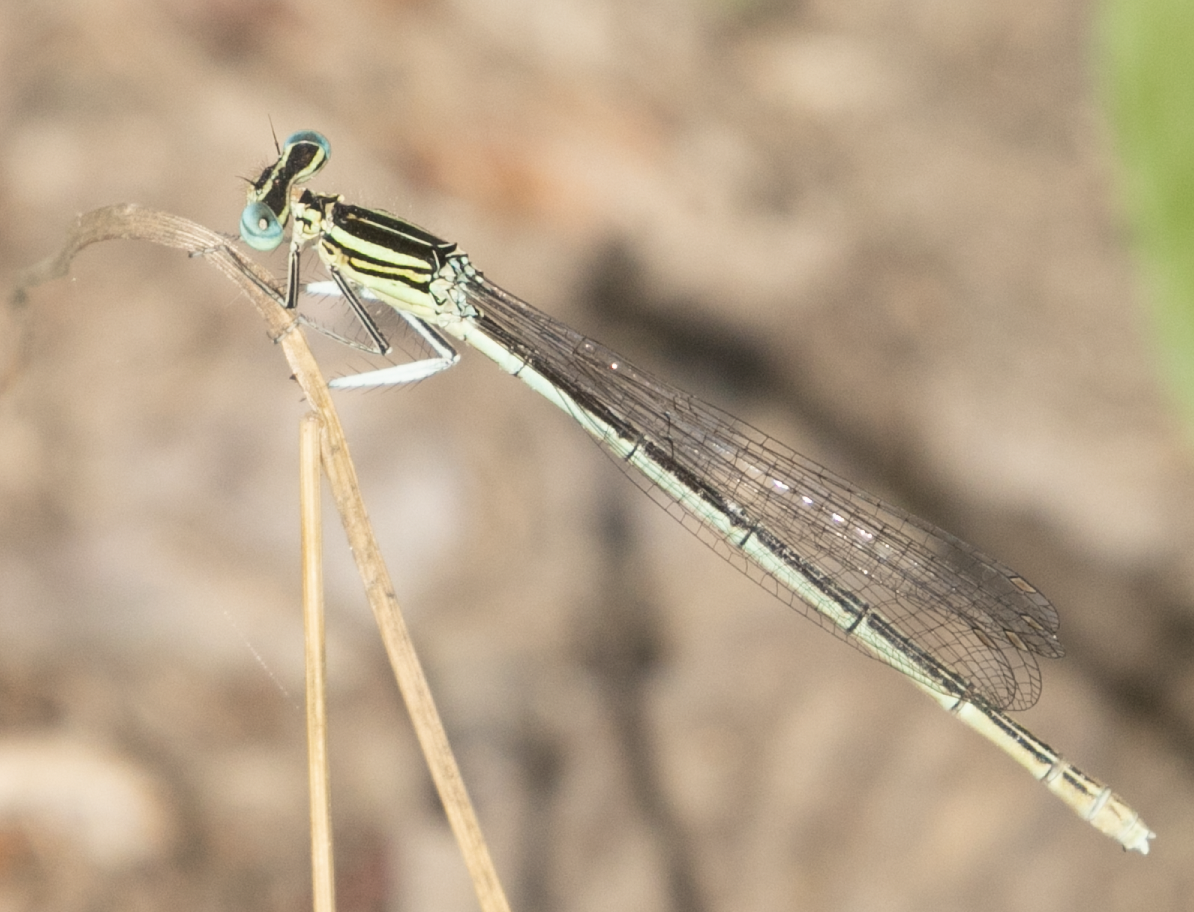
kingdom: Animalia
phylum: Arthropoda
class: Insecta
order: Odonata
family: Platycnemididae
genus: Platycnemis
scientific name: Platycnemis pennipes
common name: White-legged damselfly
